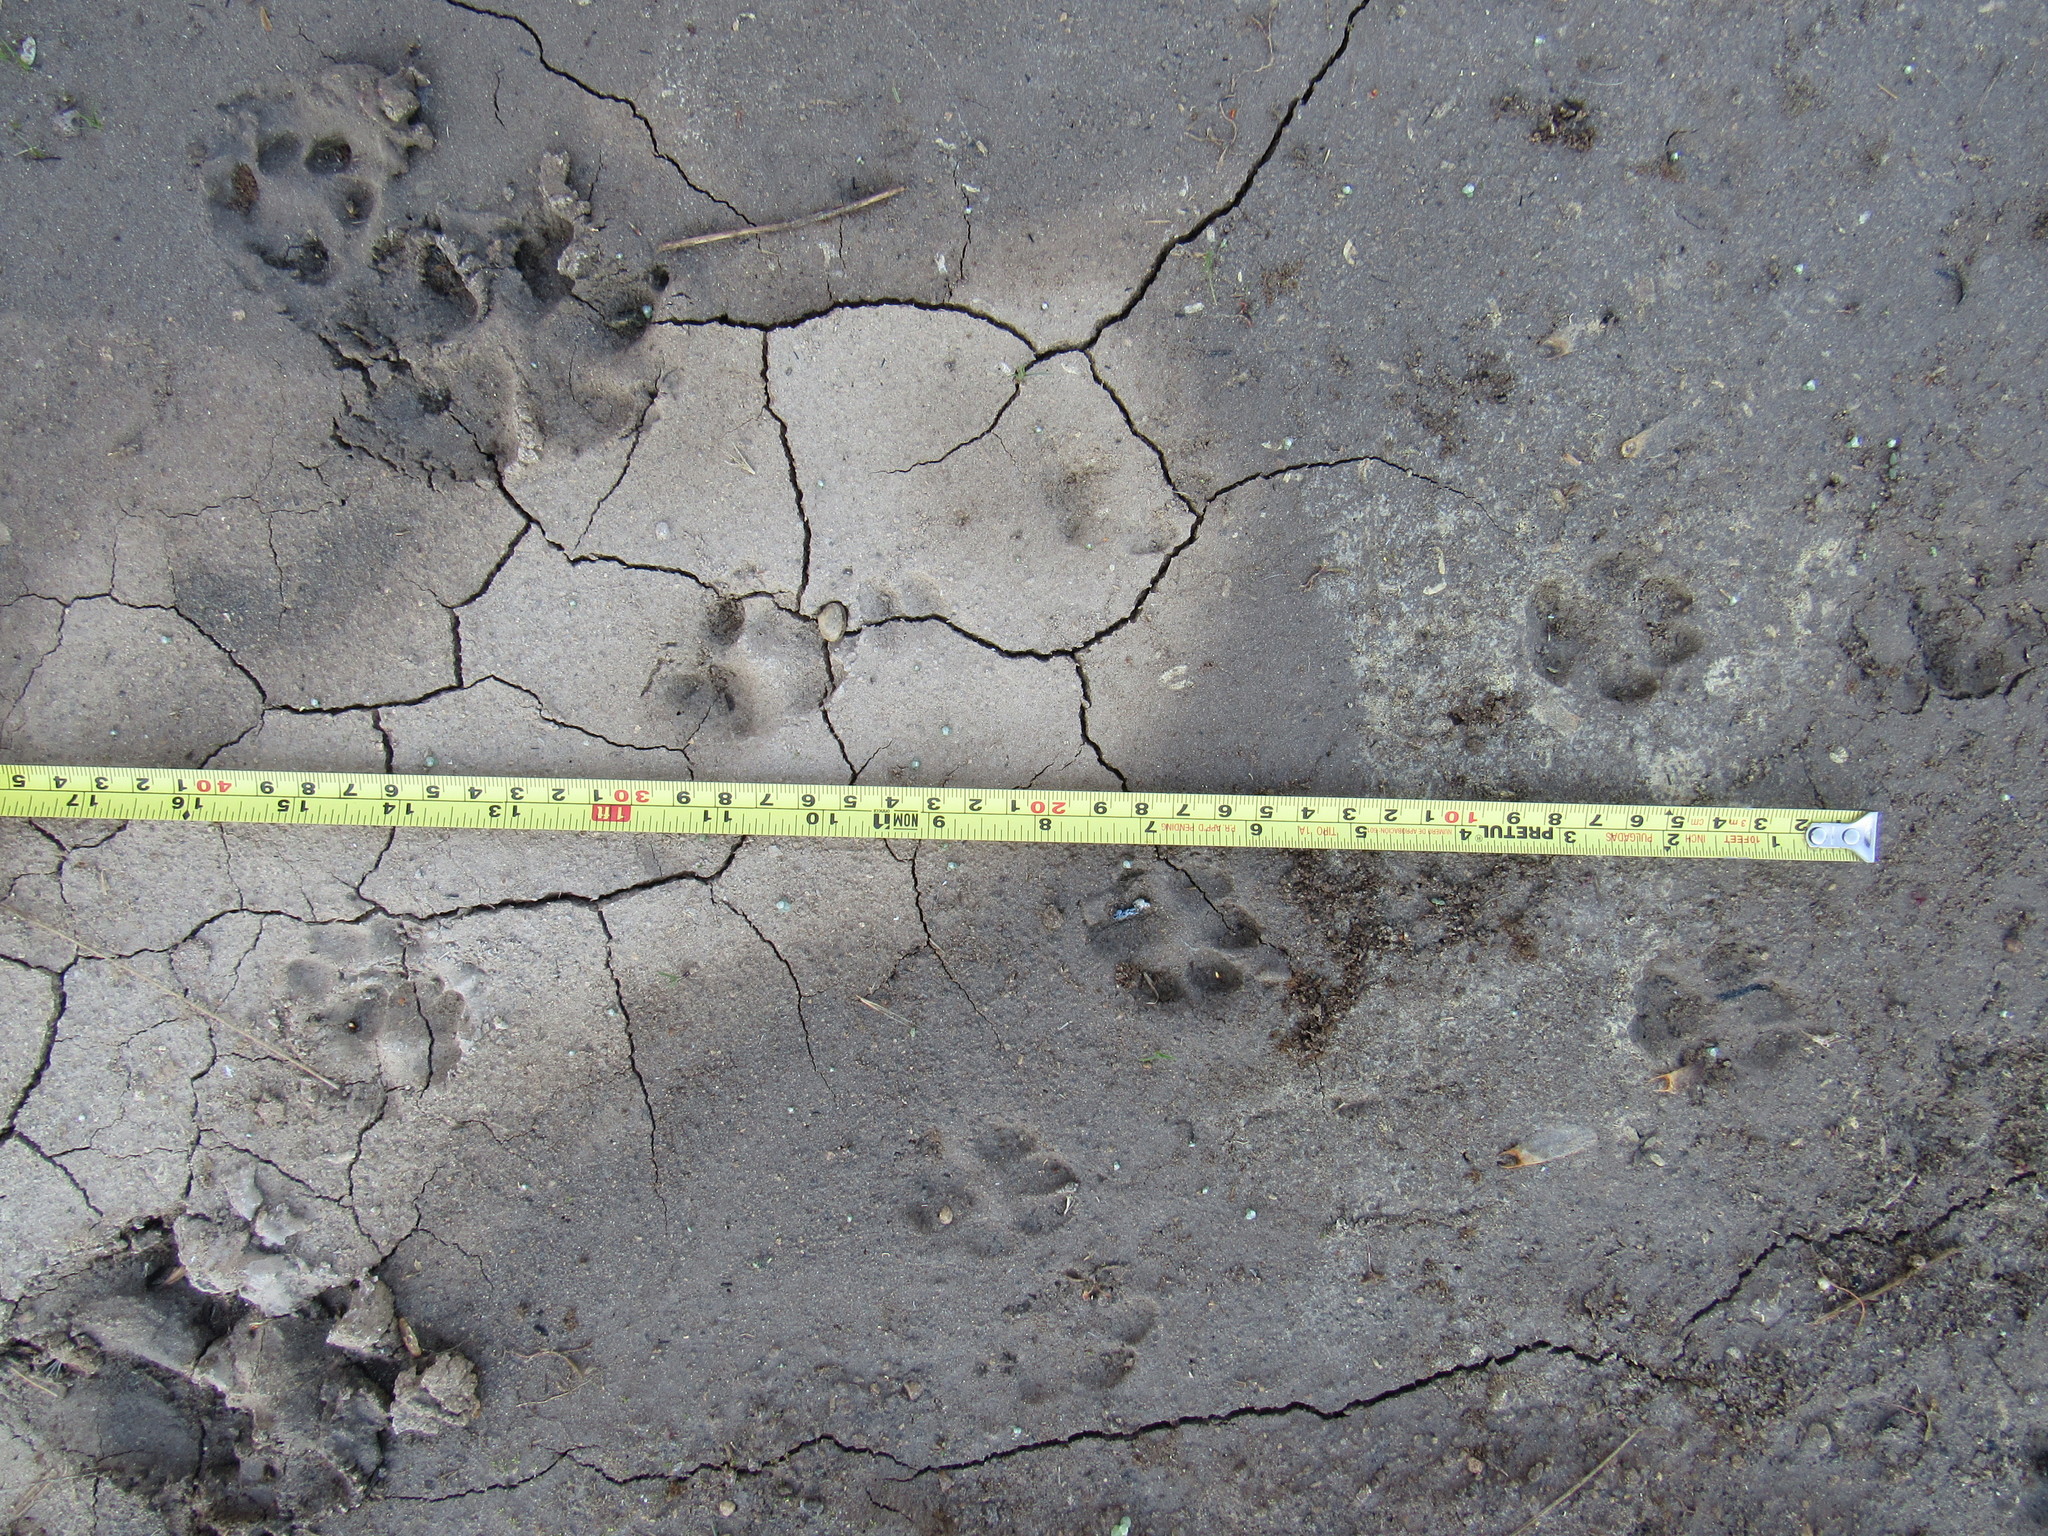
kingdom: Animalia
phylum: Chordata
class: Mammalia
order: Carnivora
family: Canidae
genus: Urocyon
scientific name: Urocyon cinereoargenteus
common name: Gray fox
